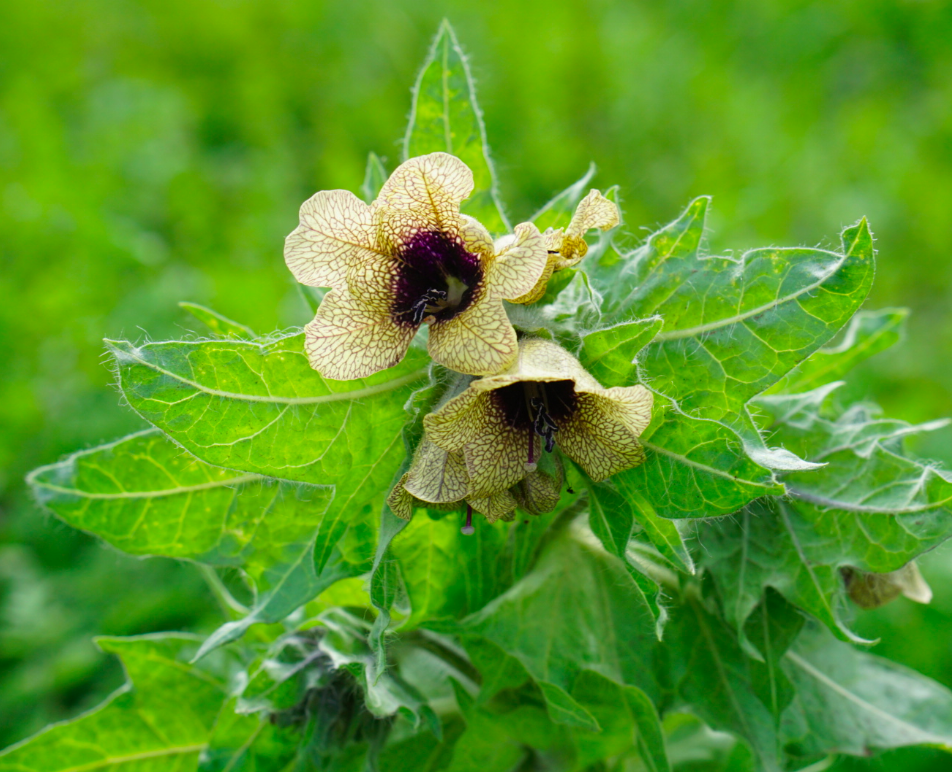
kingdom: Plantae
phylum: Tracheophyta
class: Magnoliopsida
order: Solanales
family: Solanaceae
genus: Hyoscyamus
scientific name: Hyoscyamus niger
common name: Henbane
